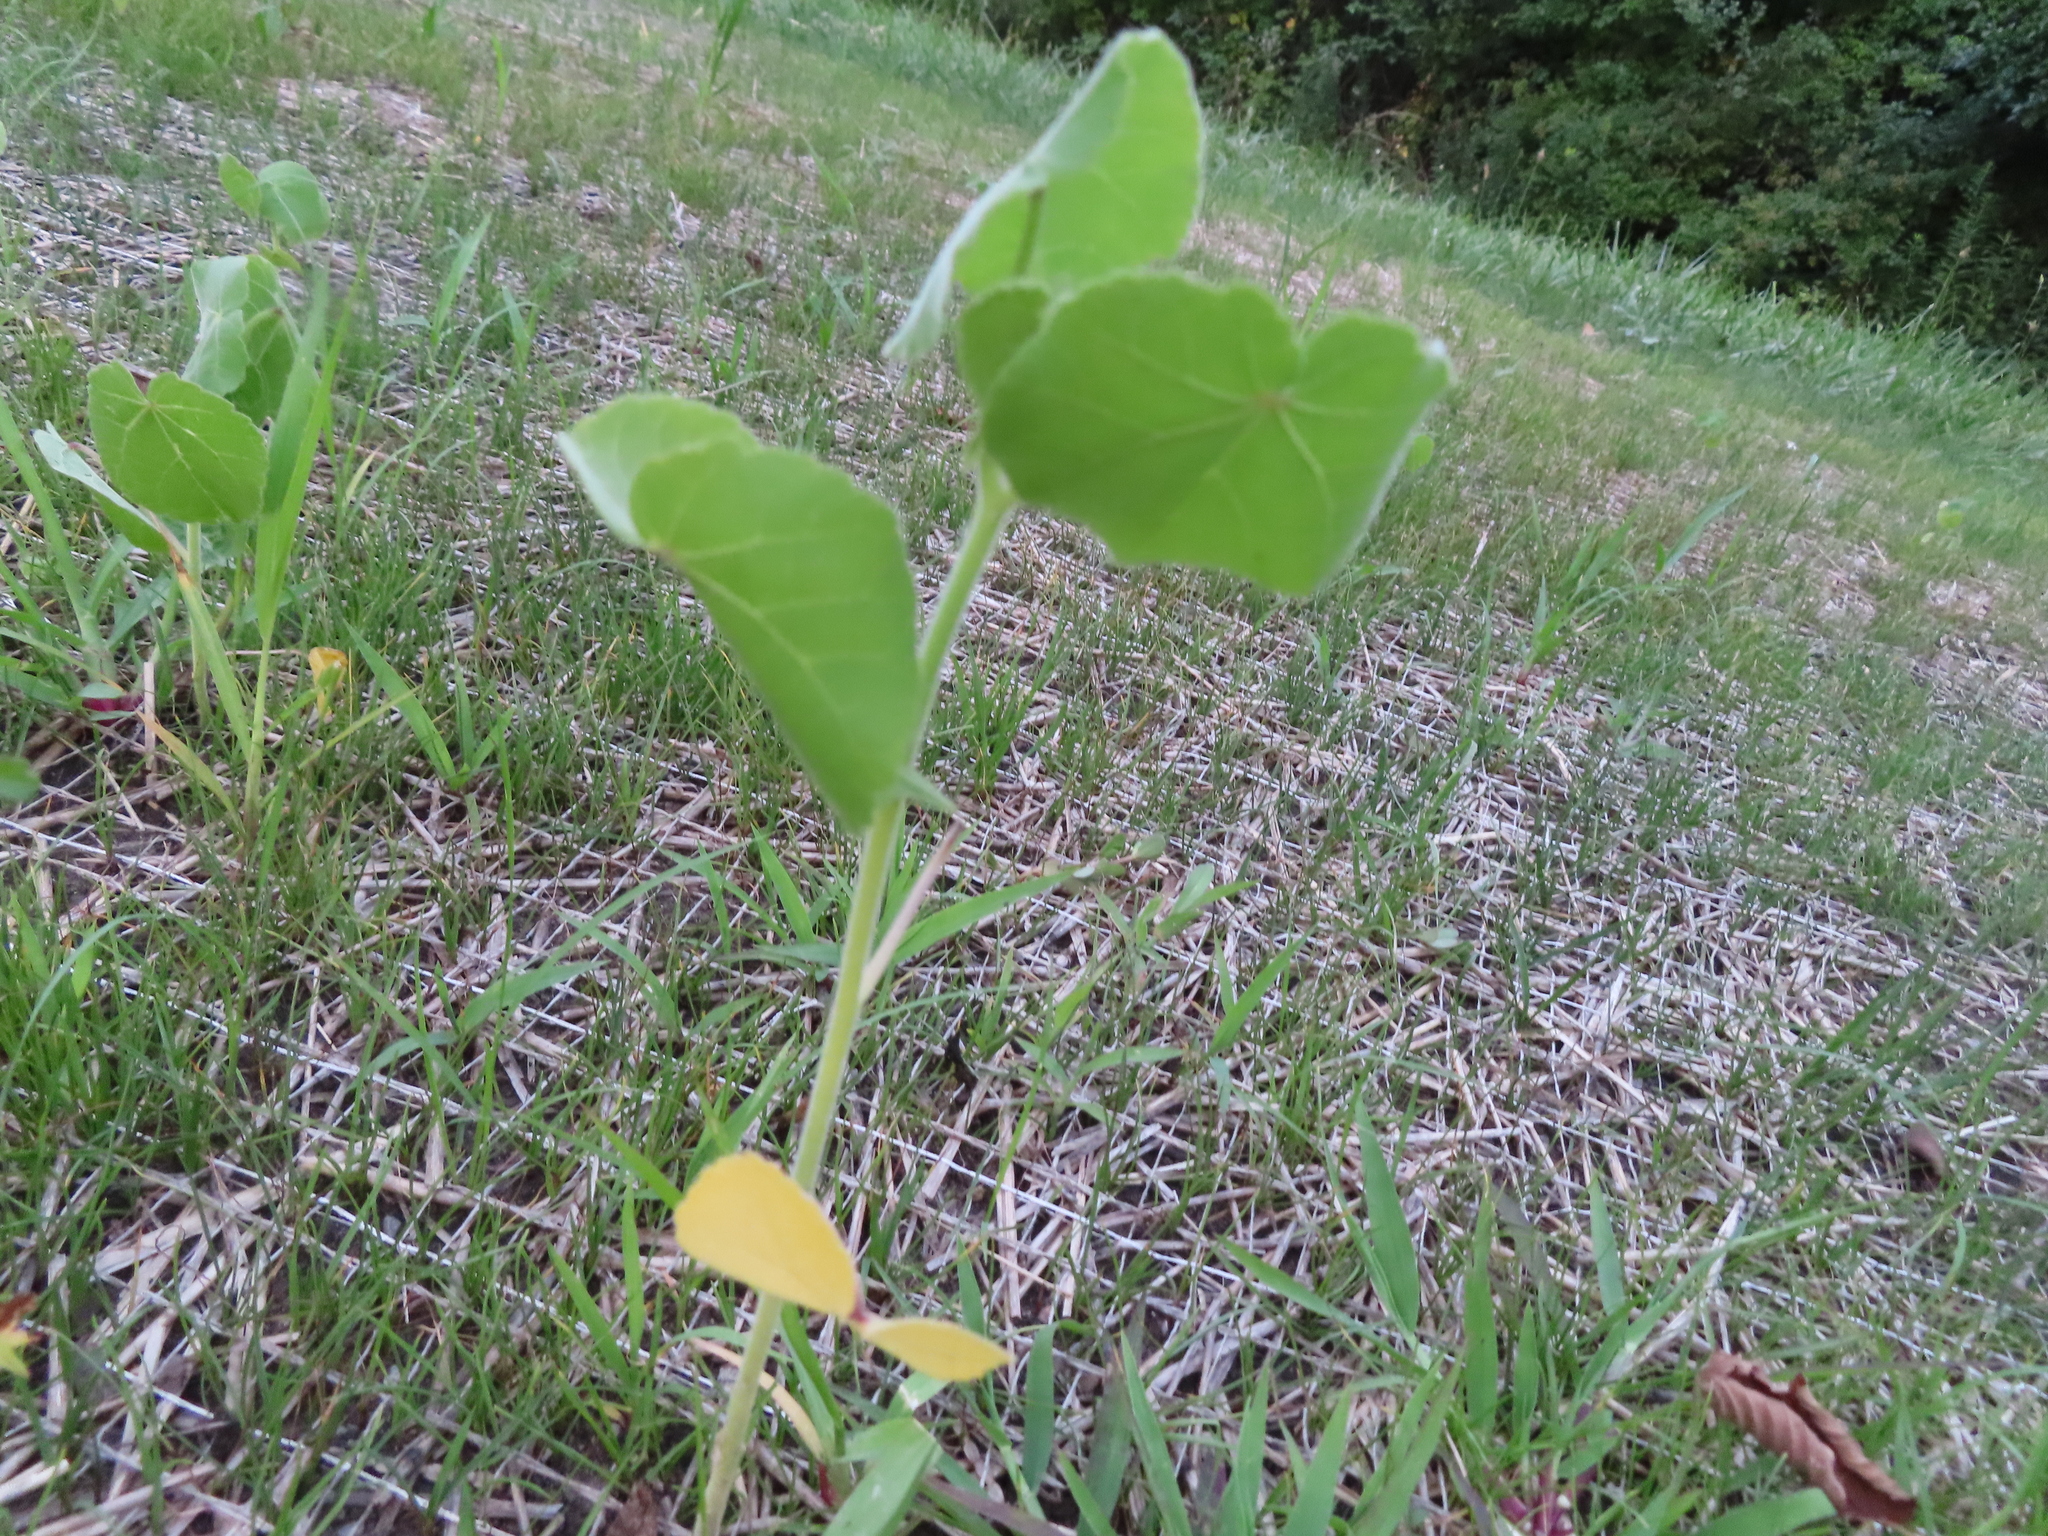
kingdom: Plantae
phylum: Tracheophyta
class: Magnoliopsida
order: Malvales
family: Malvaceae
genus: Abutilon
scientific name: Abutilon theophrasti
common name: Velvetleaf
